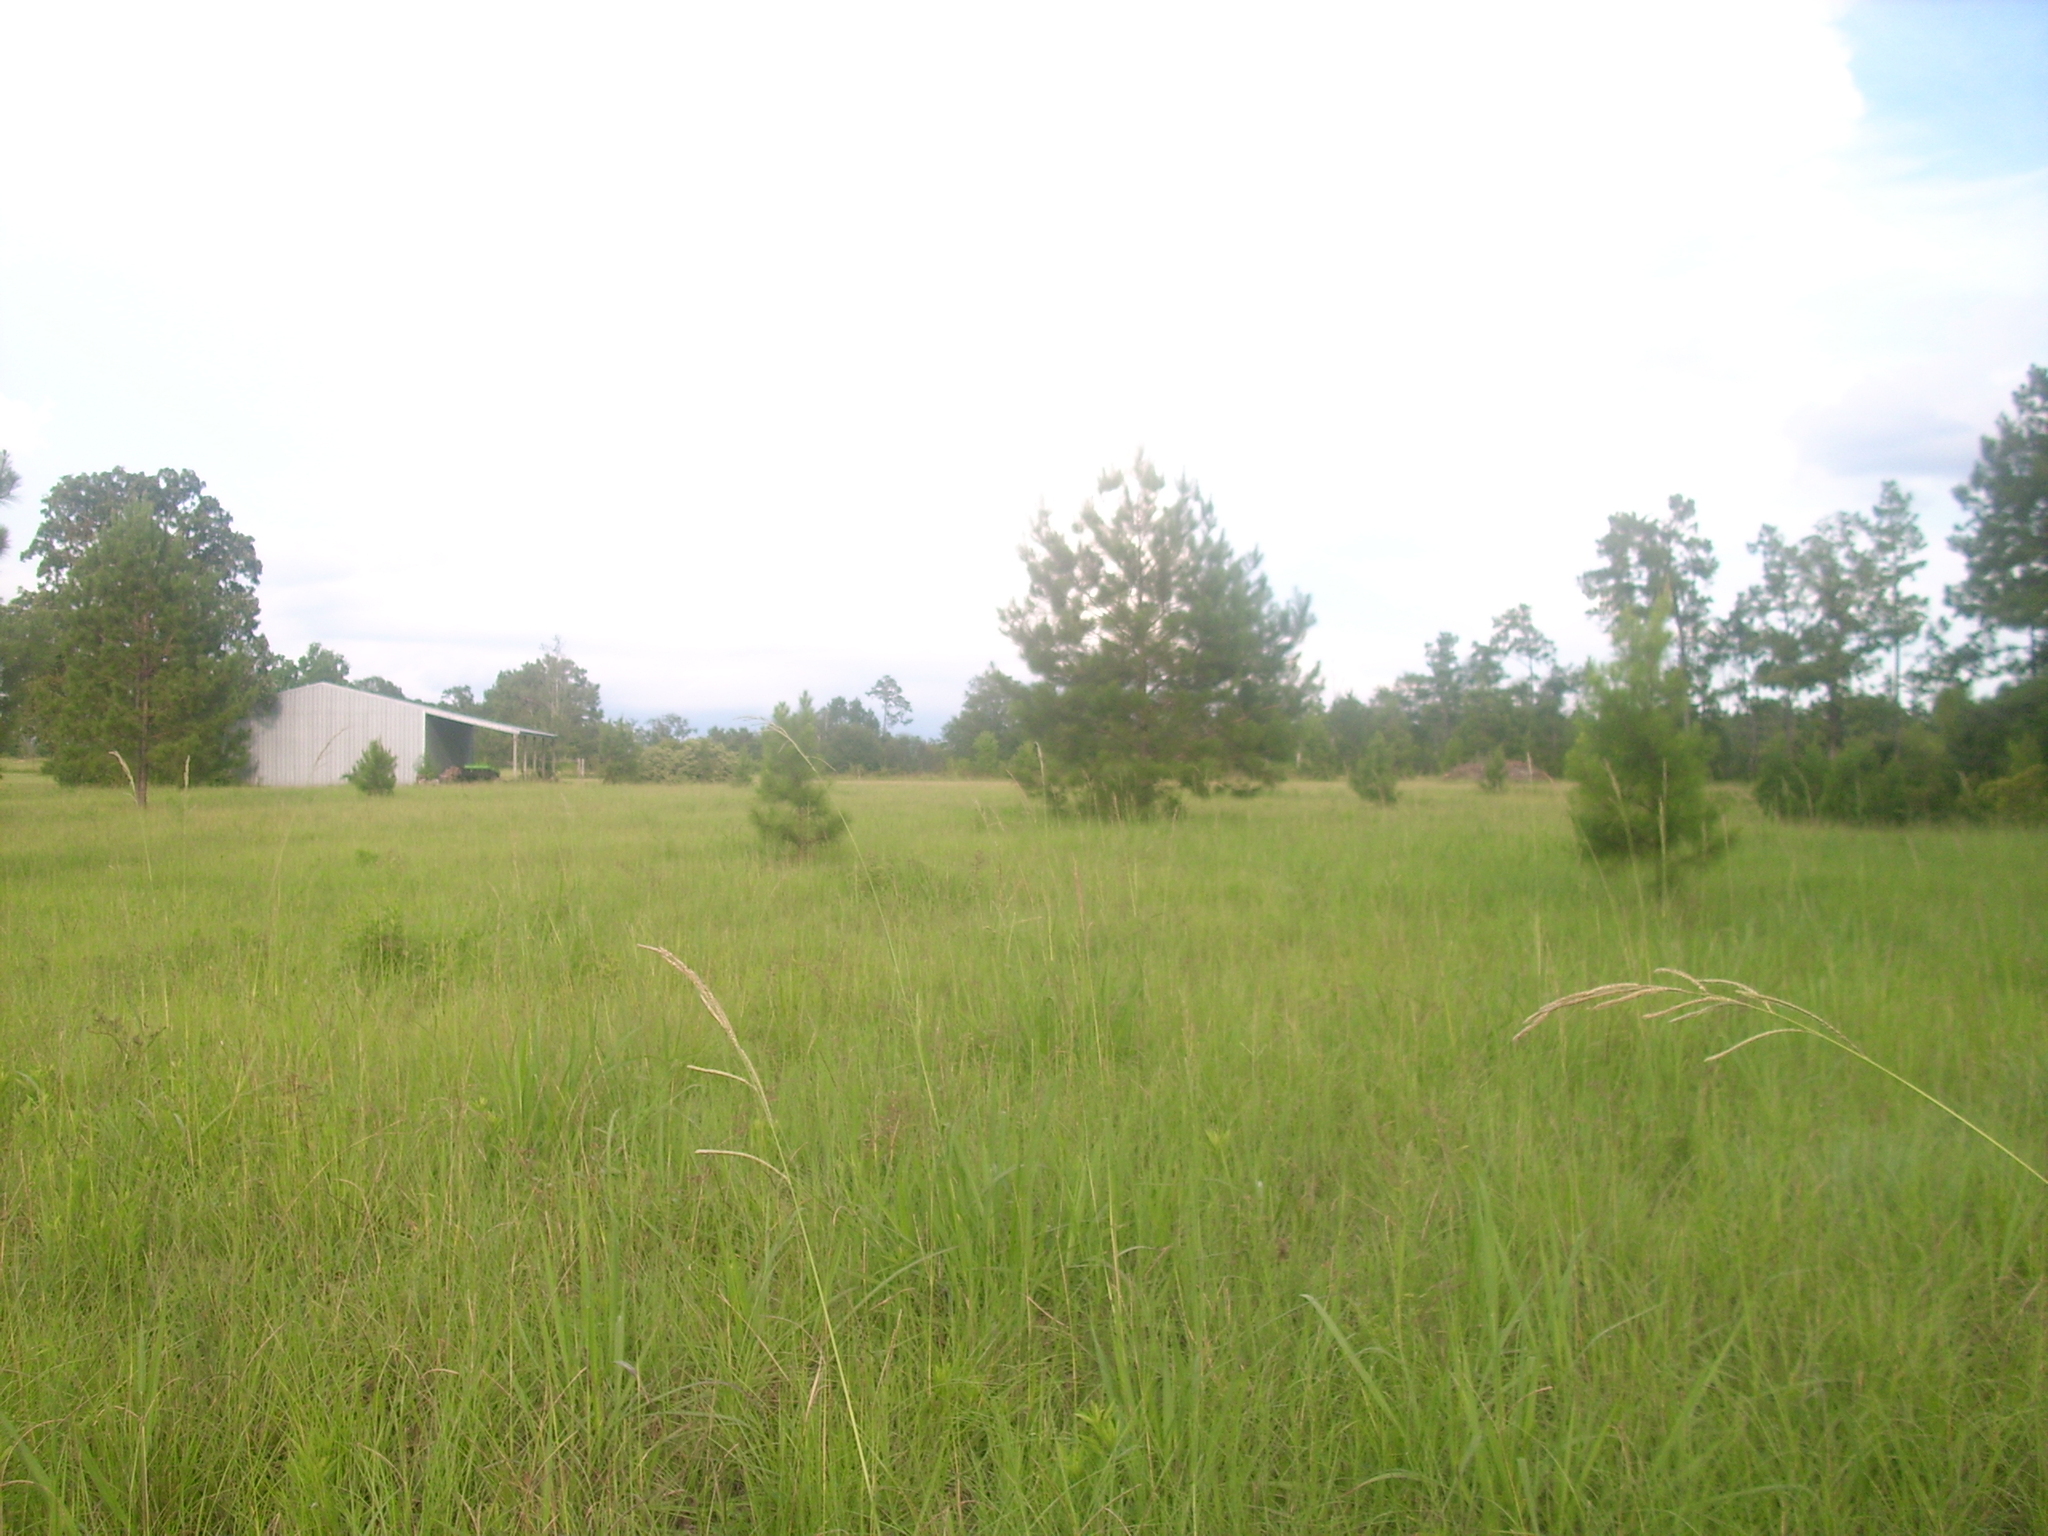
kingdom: Plantae
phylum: Tracheophyta
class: Liliopsida
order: Poales
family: Poaceae
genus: Paspalum
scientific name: Paspalum urvillei
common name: Vasey's grass
